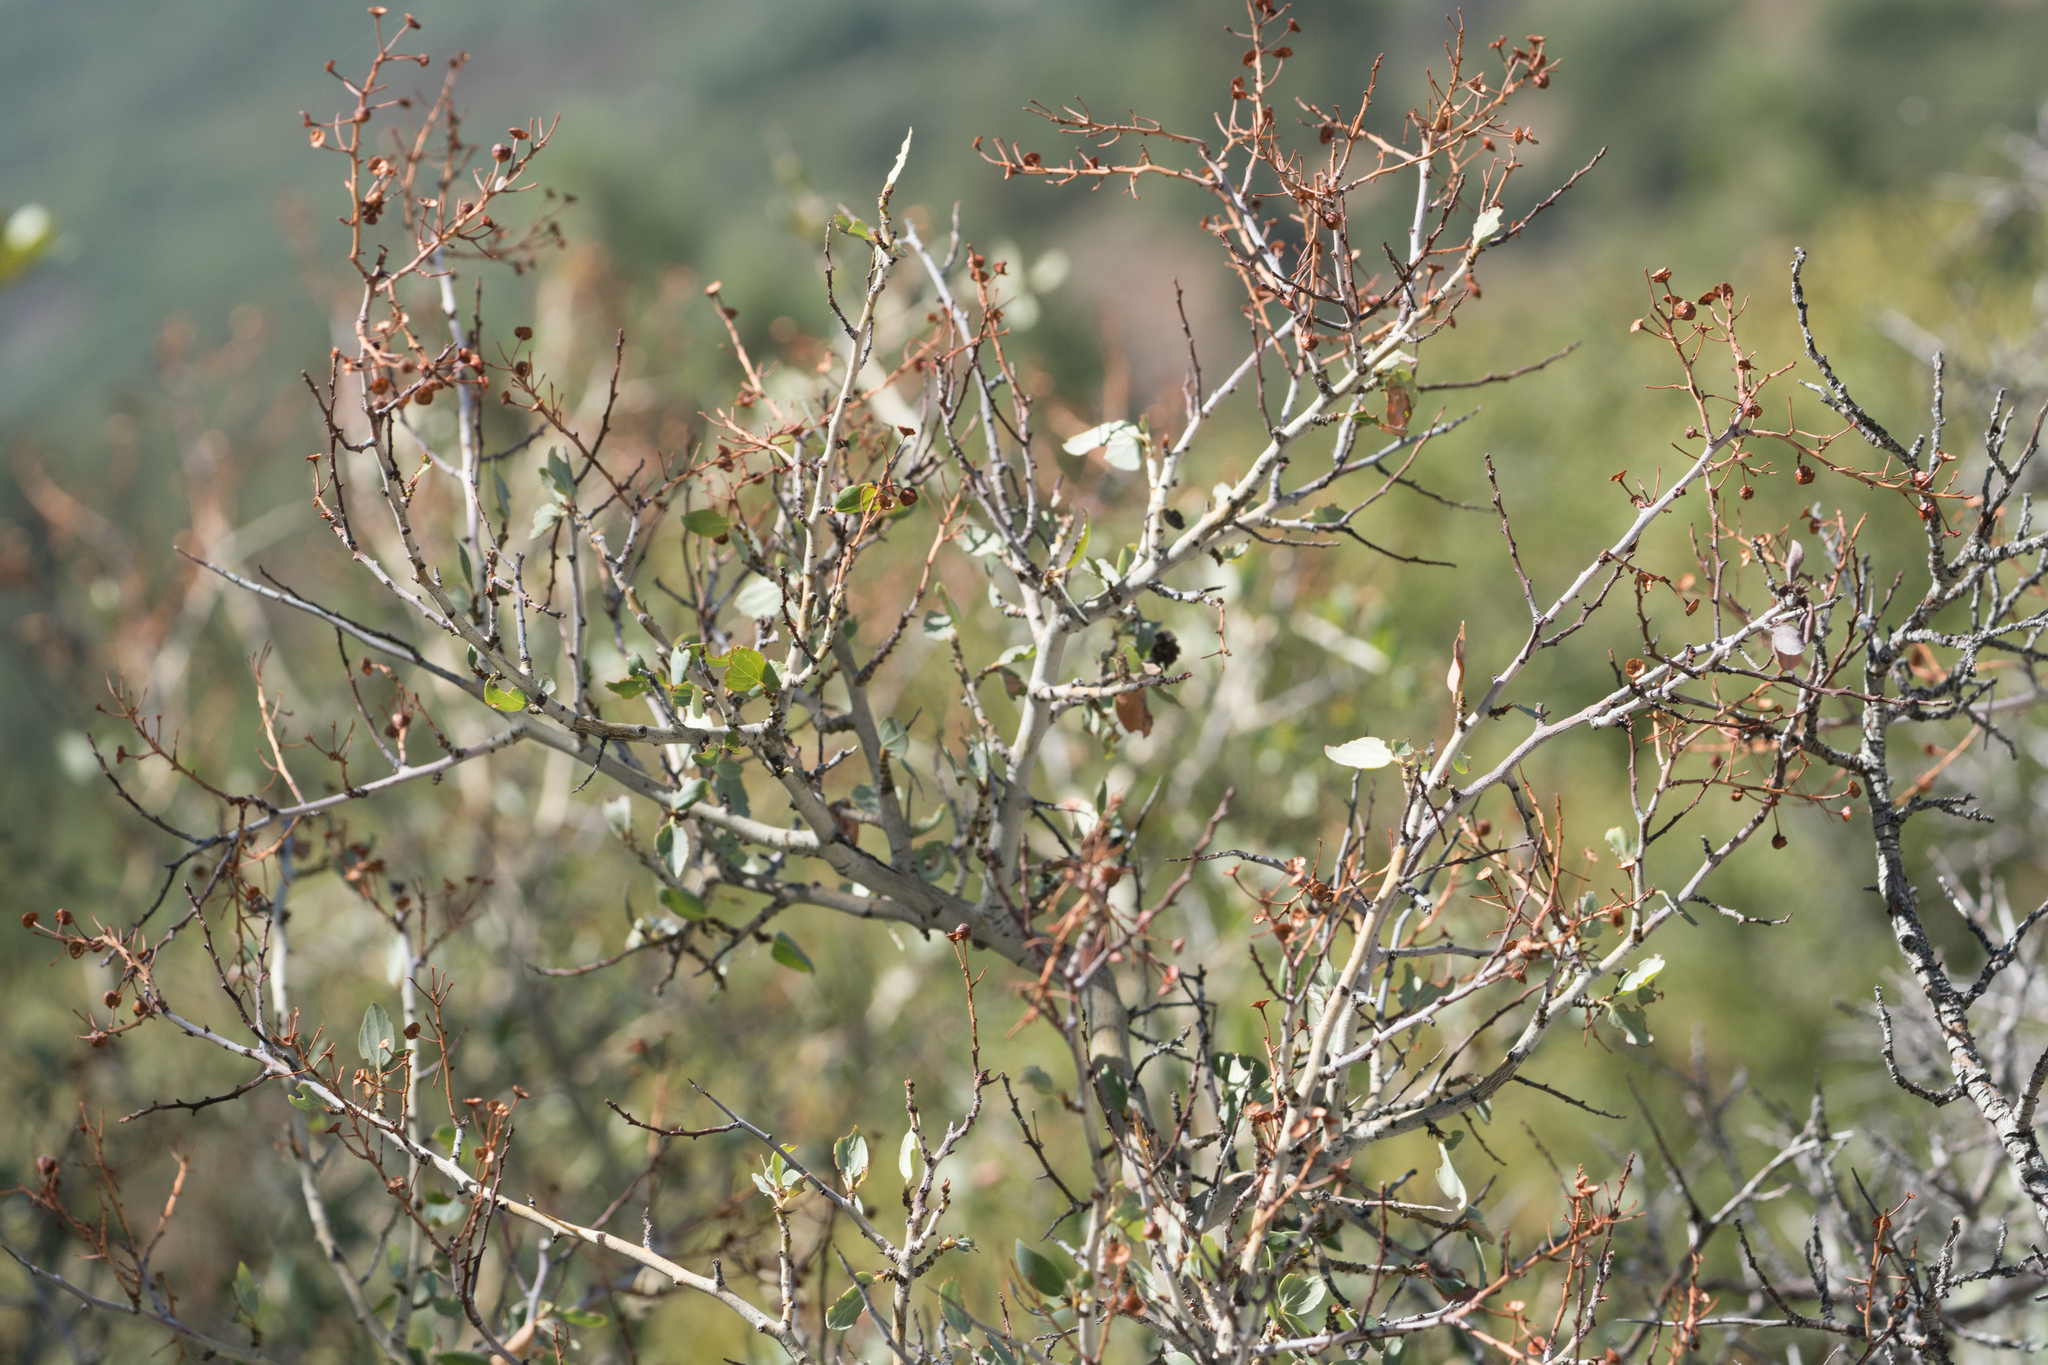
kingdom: Plantae
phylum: Tracheophyta
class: Magnoliopsida
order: Rosales
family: Rhamnaceae
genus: Ceanothus
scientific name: Ceanothus leucodermis
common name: Chaparral whitethorn
